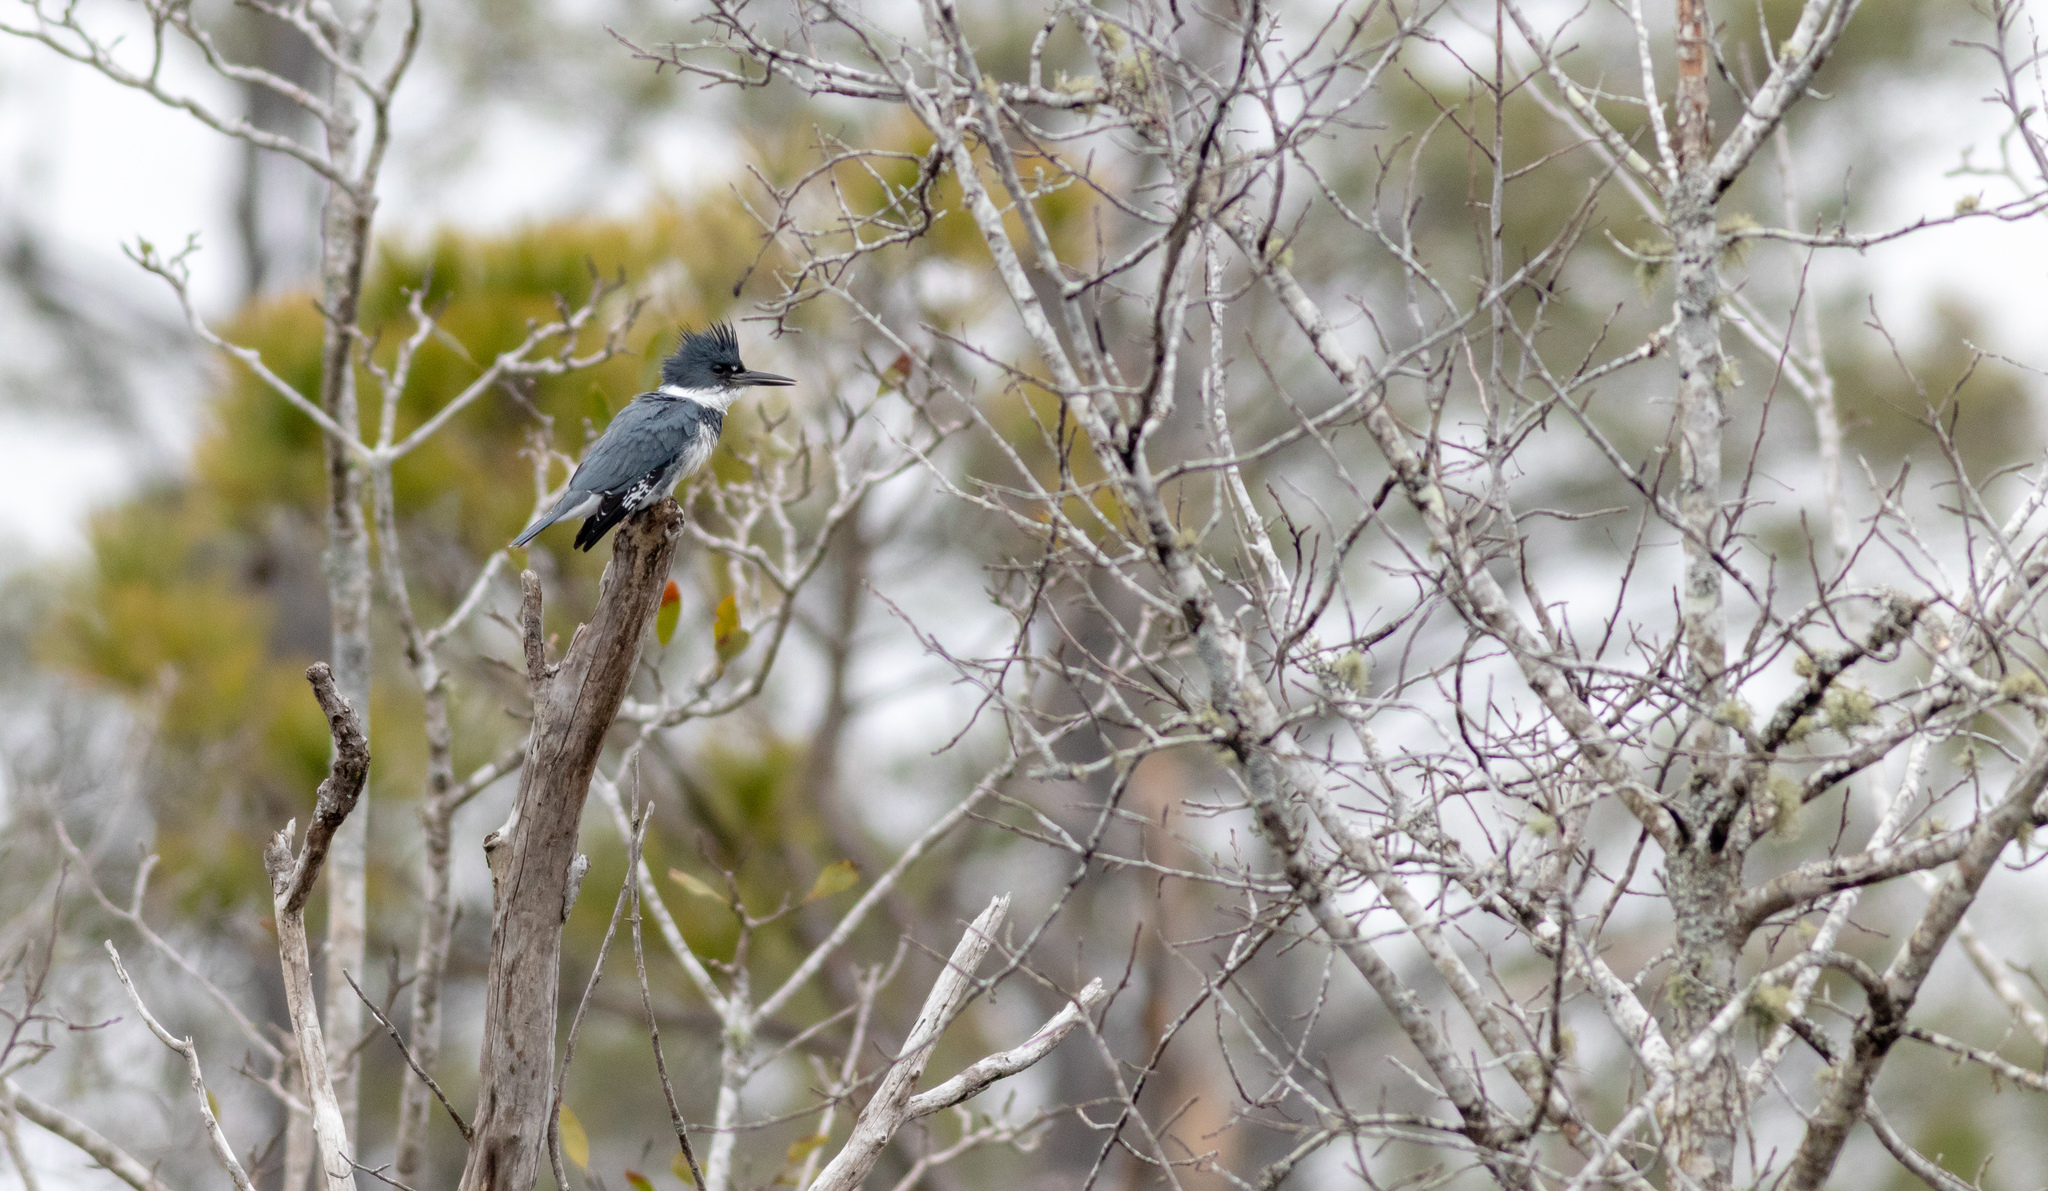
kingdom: Animalia
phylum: Chordata
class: Aves
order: Coraciiformes
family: Alcedinidae
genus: Megaceryle
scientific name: Megaceryle alcyon
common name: Belted kingfisher
